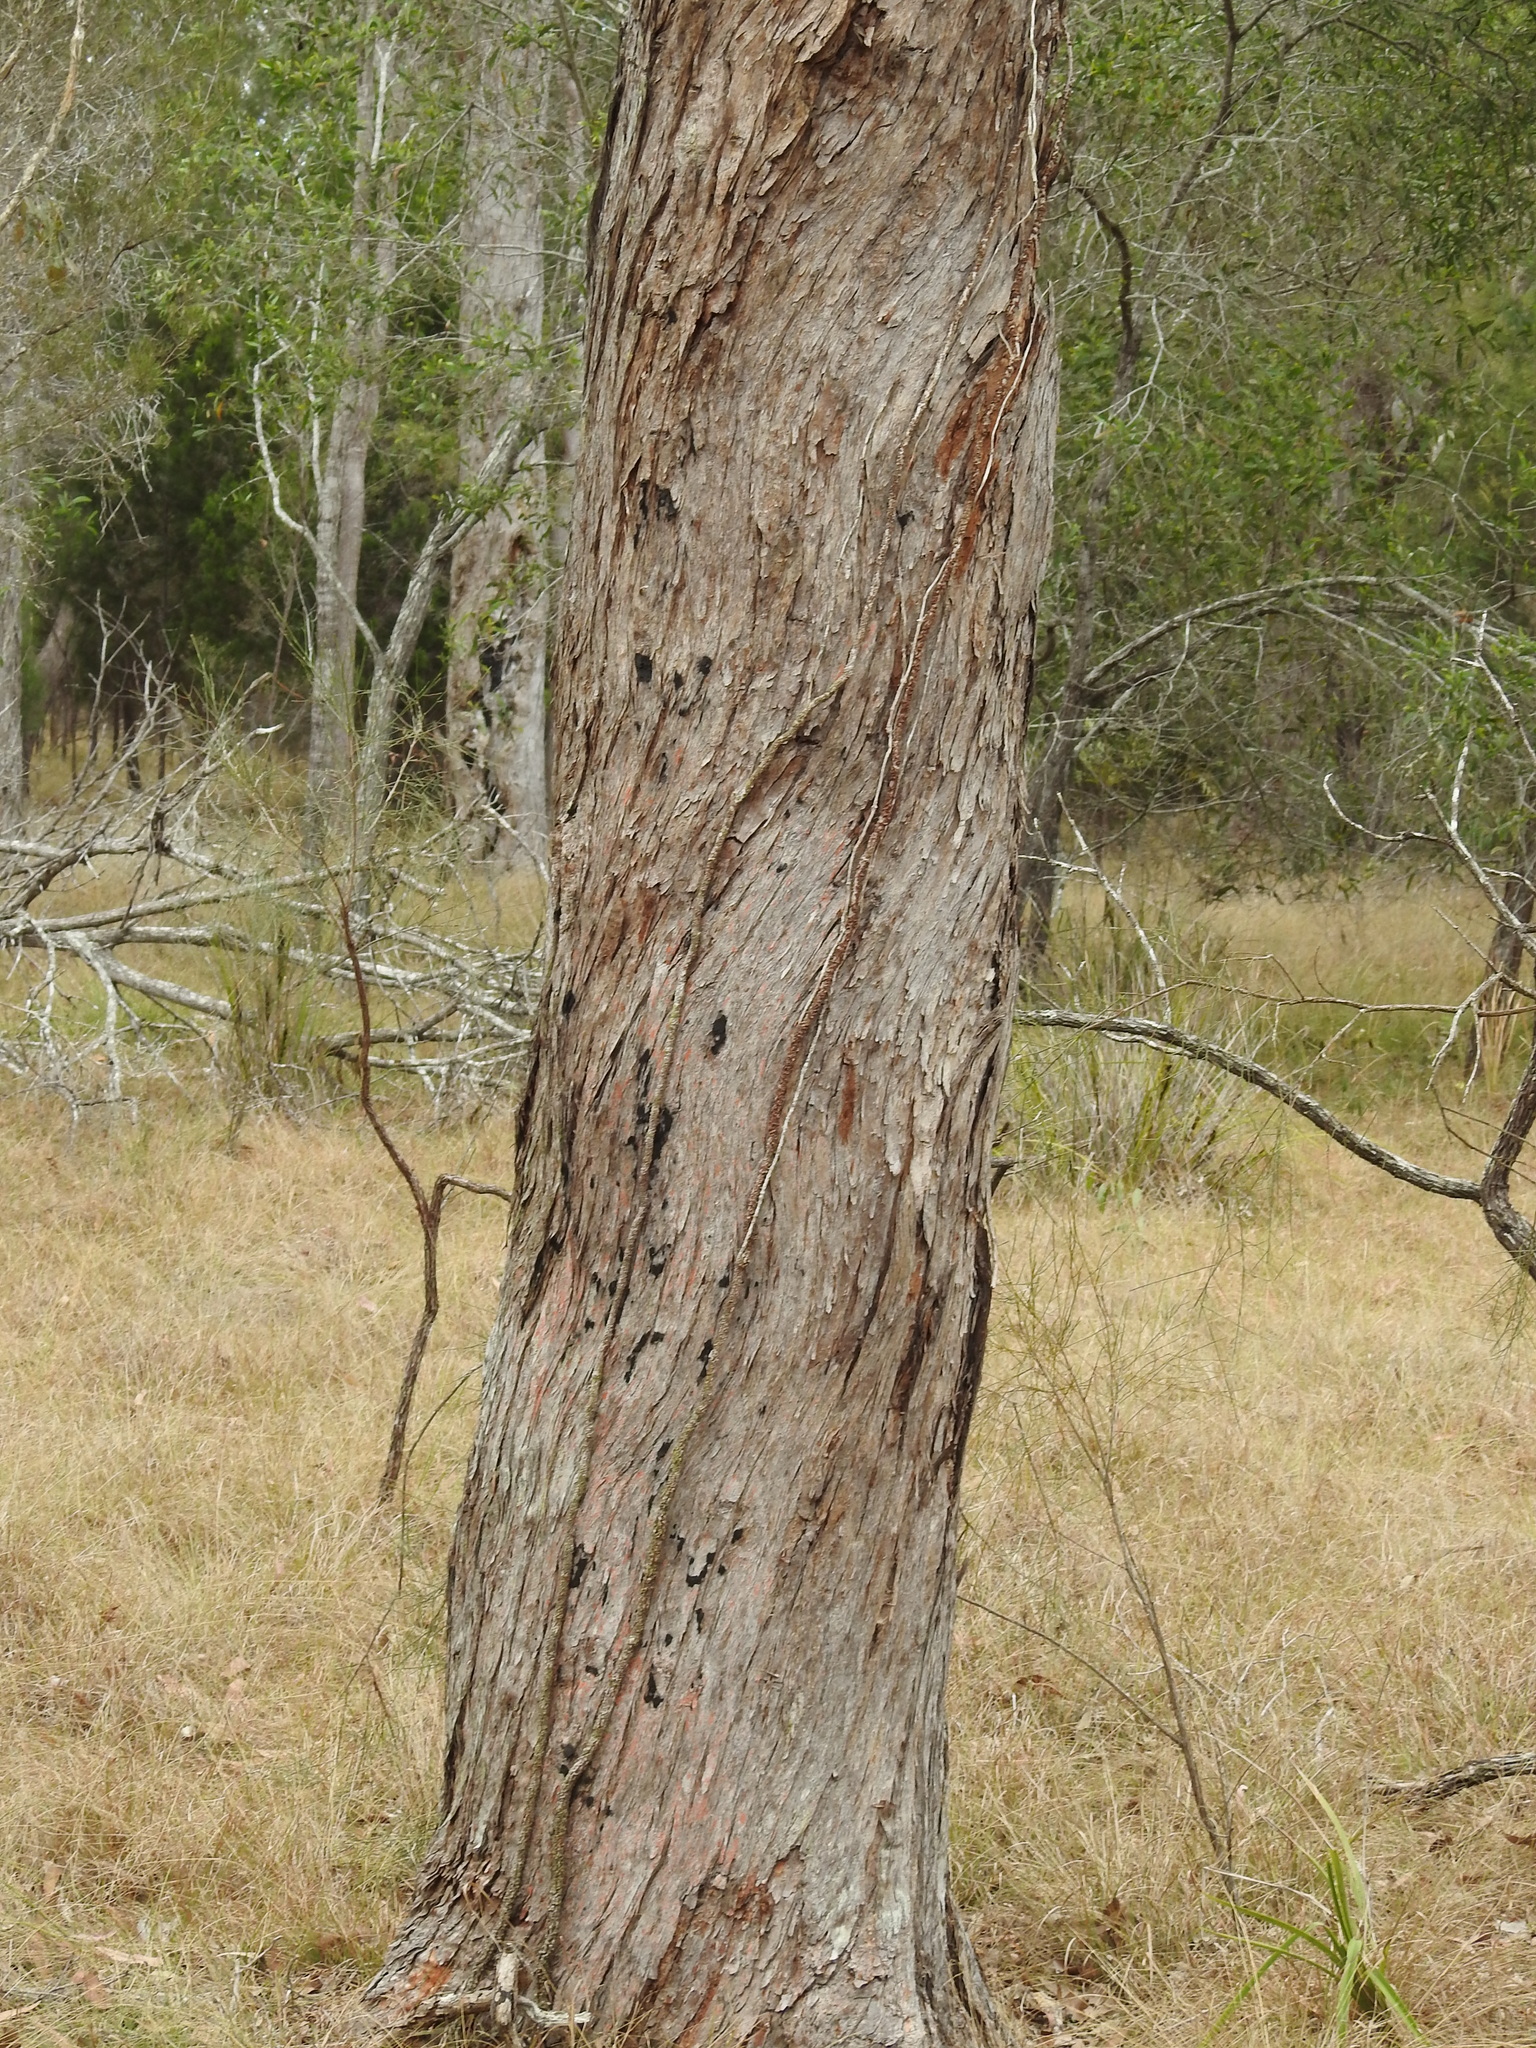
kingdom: Plantae
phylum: Tracheophyta
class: Magnoliopsida
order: Myrtales
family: Myrtaceae
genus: Lophostemon
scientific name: Lophostemon suaveolens
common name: Paperbark-mahogany
